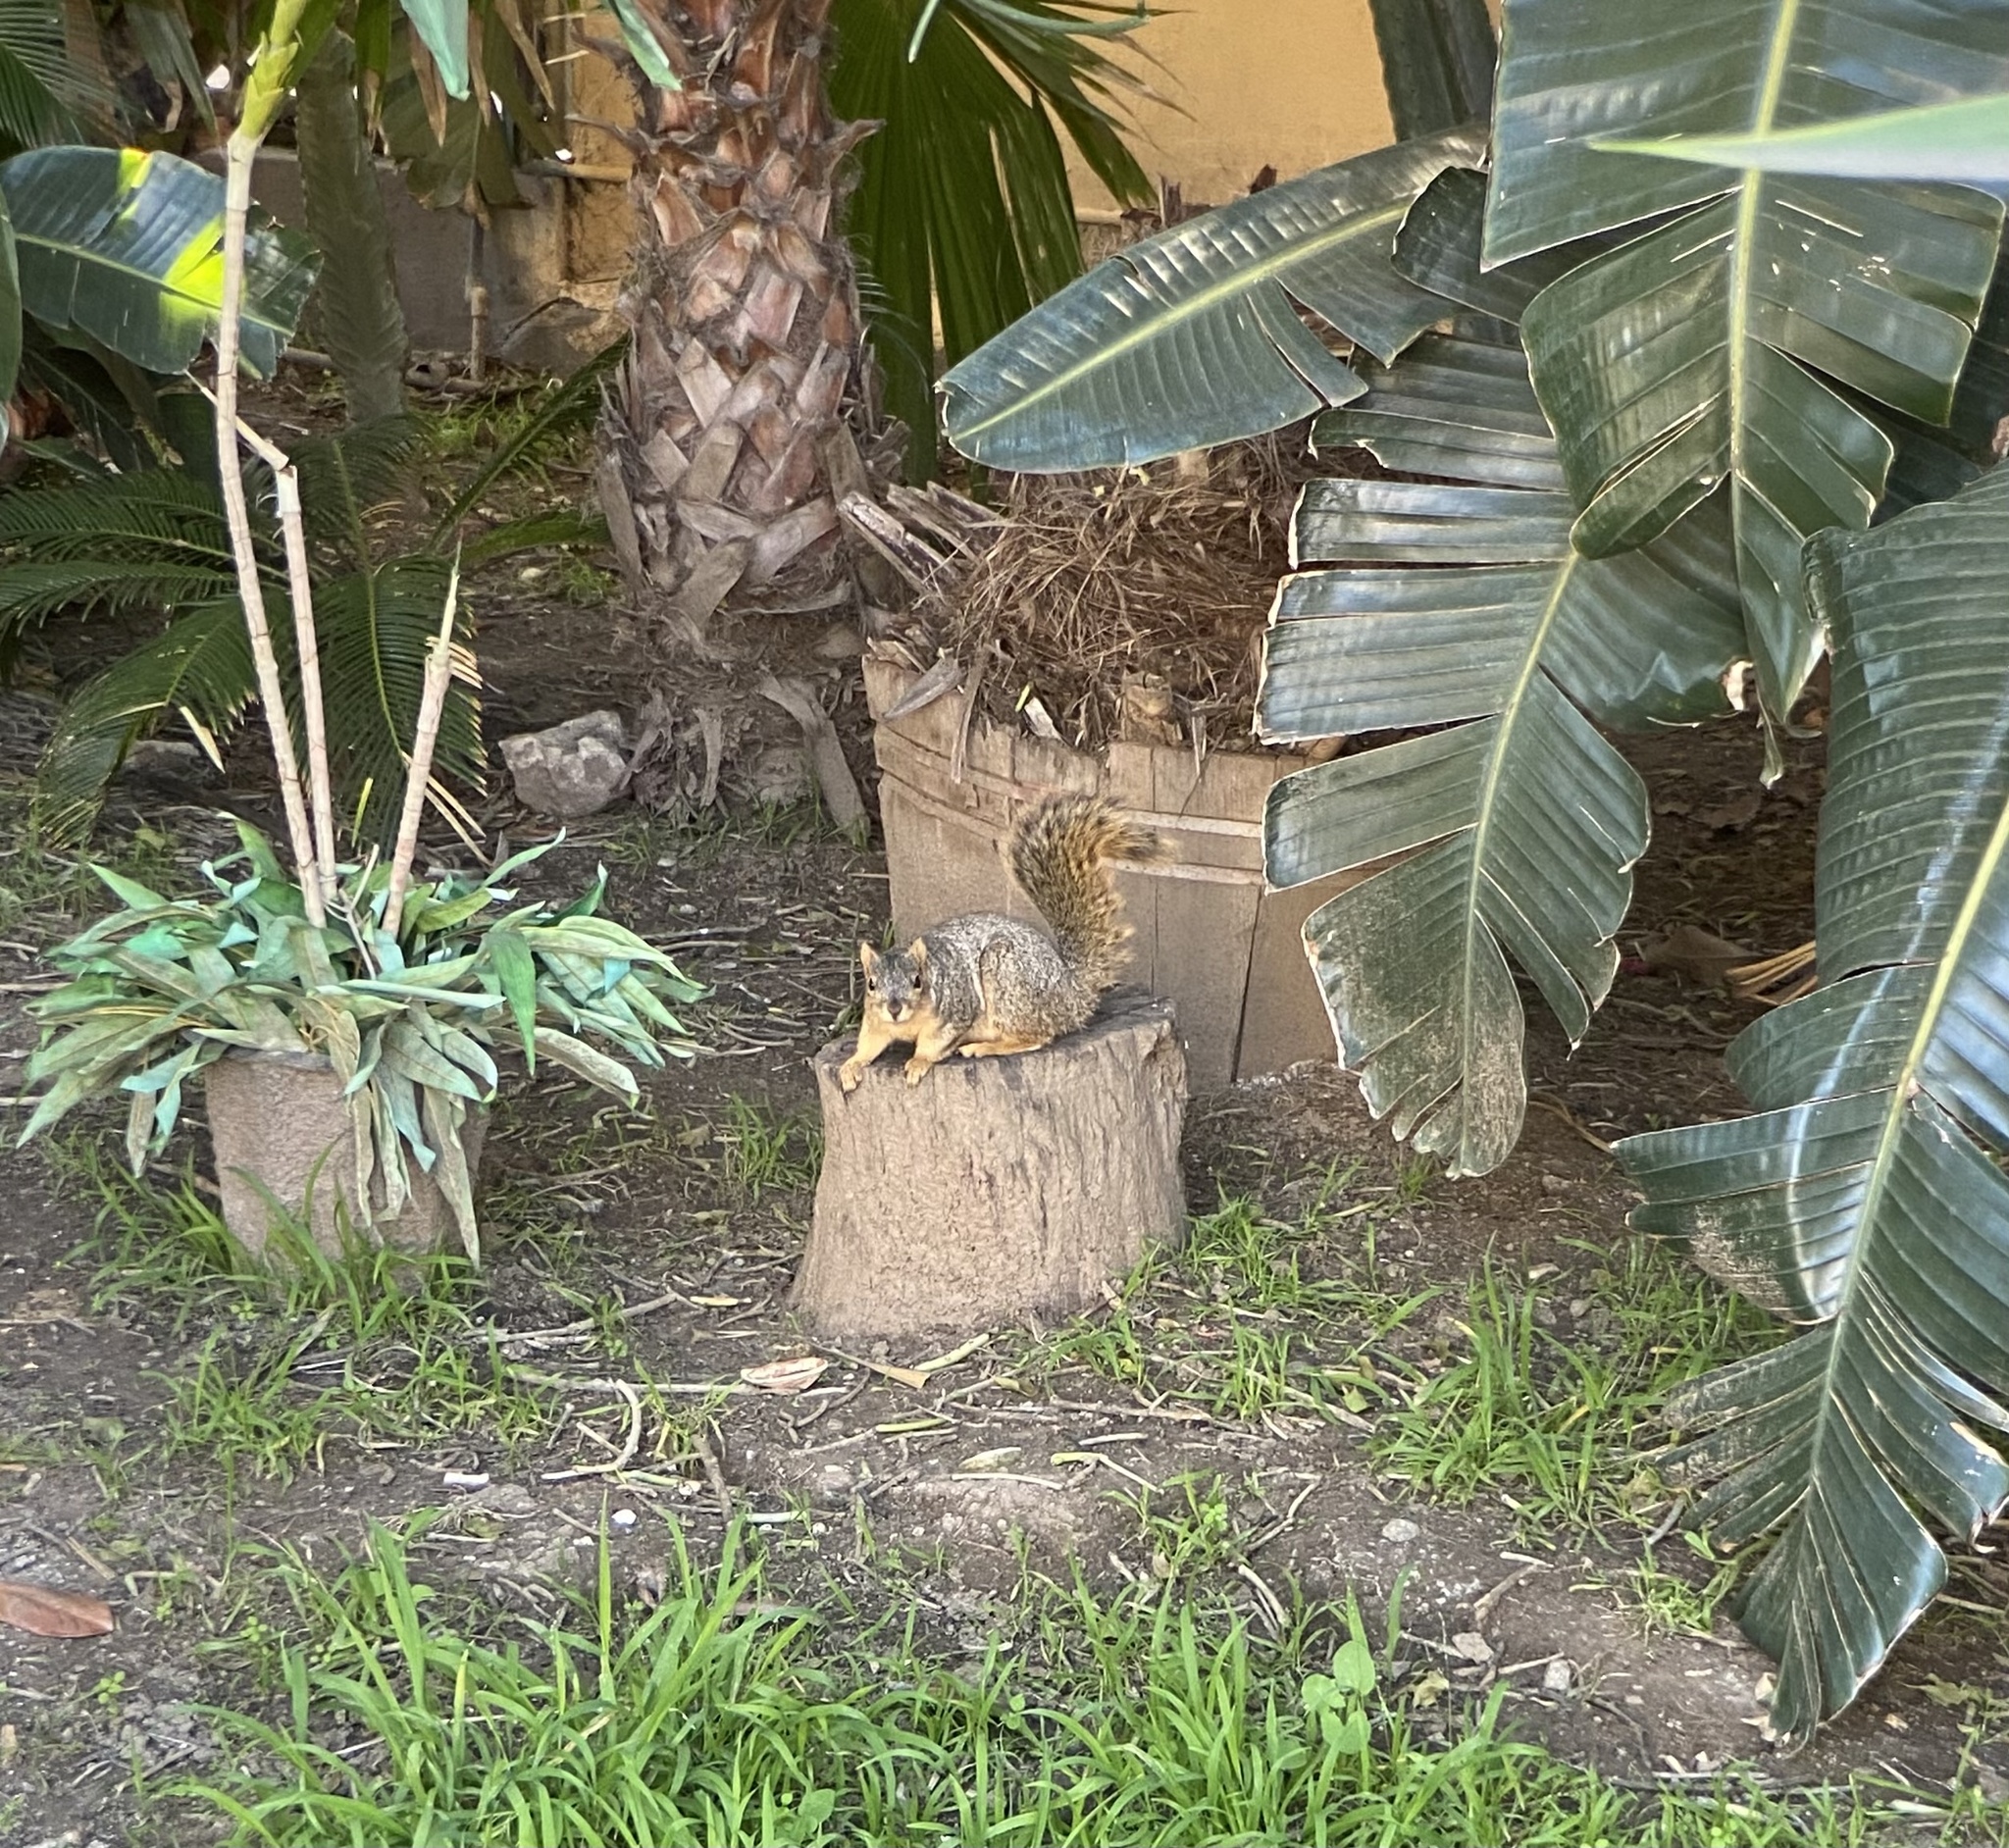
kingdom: Animalia
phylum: Chordata
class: Mammalia
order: Rodentia
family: Sciuridae
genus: Sciurus
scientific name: Sciurus niger
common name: Fox squirrel
